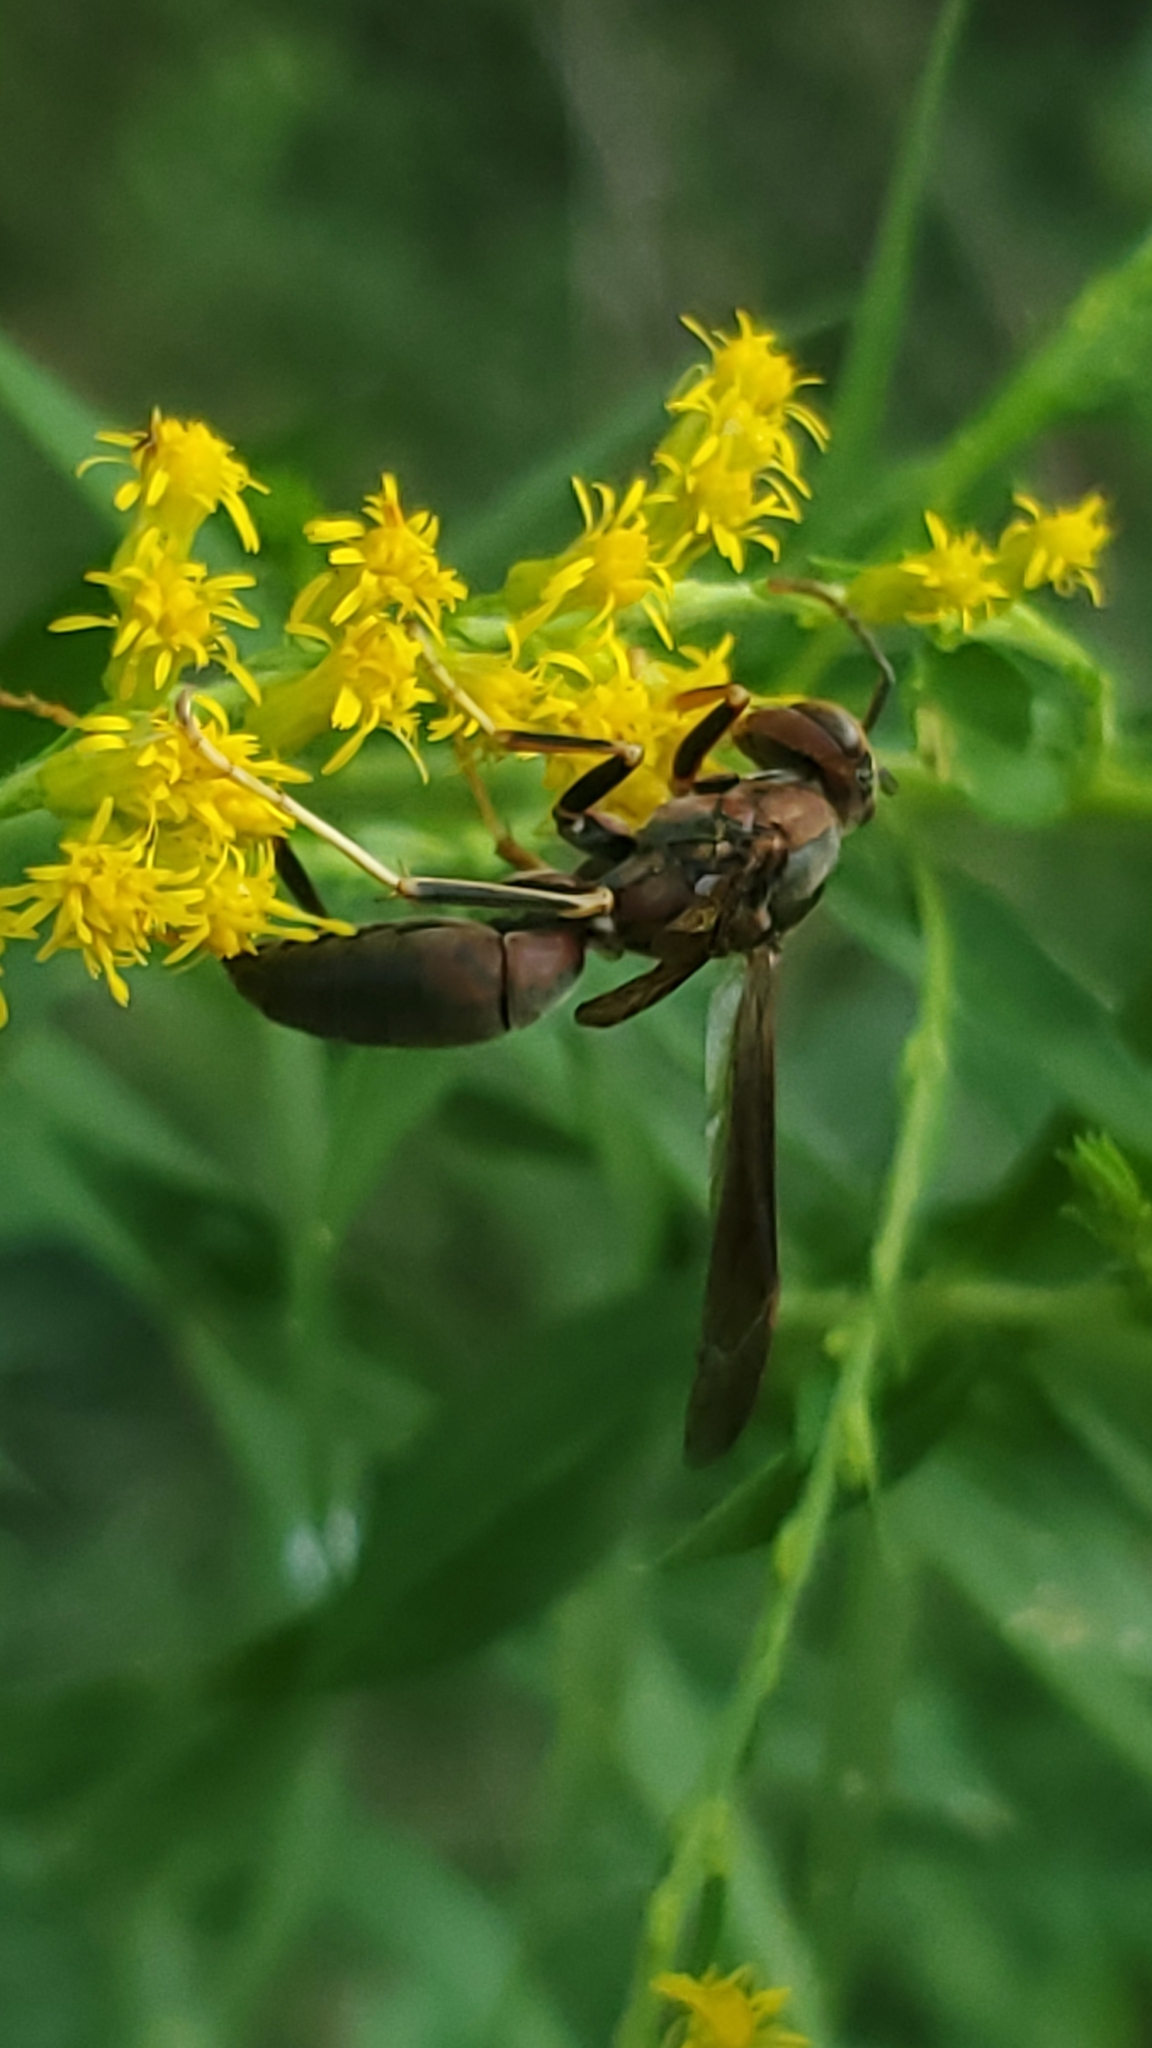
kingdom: Animalia
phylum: Arthropoda
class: Insecta
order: Hymenoptera
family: Eumenidae
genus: Polistes
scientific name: Polistes metricus
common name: Metric paper wasp
